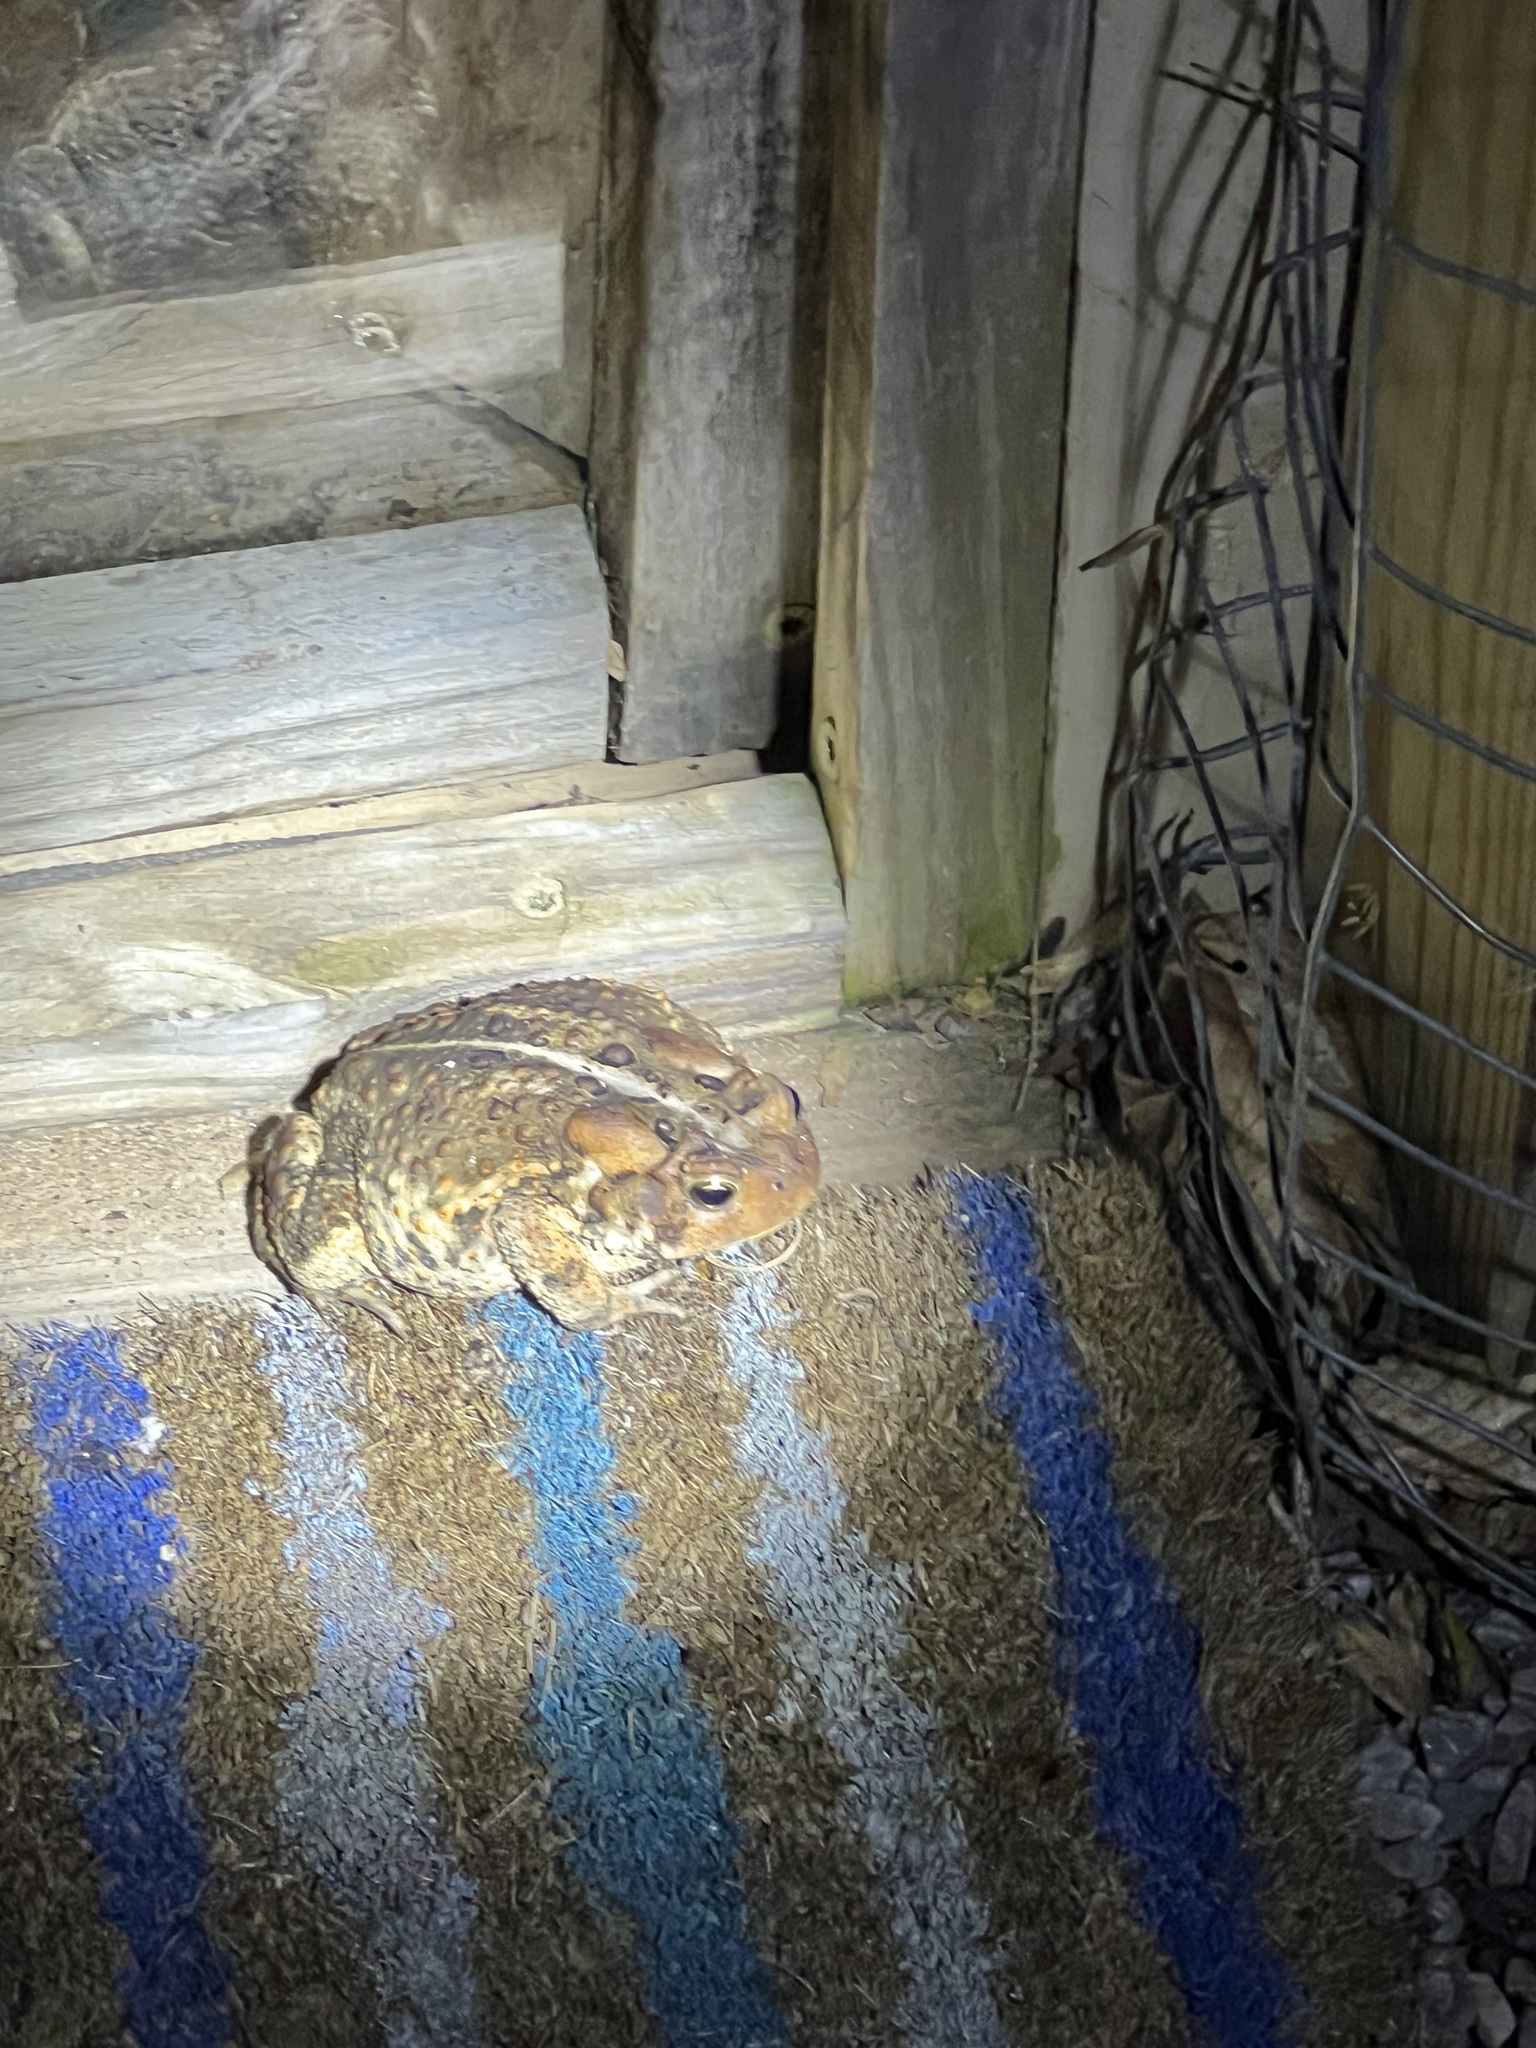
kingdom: Animalia
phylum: Chordata
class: Amphibia
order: Anura
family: Bufonidae
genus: Anaxyrus
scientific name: Anaxyrus americanus
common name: American toad
